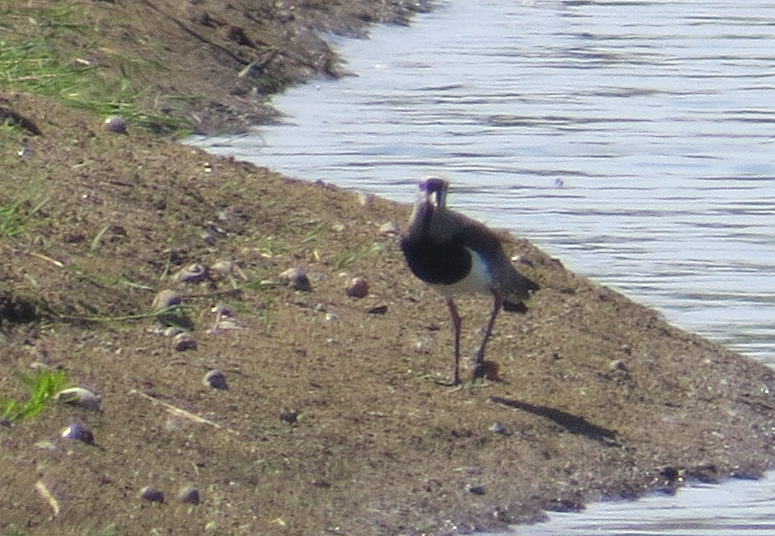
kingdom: Animalia
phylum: Chordata
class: Aves
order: Charadriiformes
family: Charadriidae
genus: Vanellus
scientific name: Vanellus chilensis
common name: Southern lapwing
